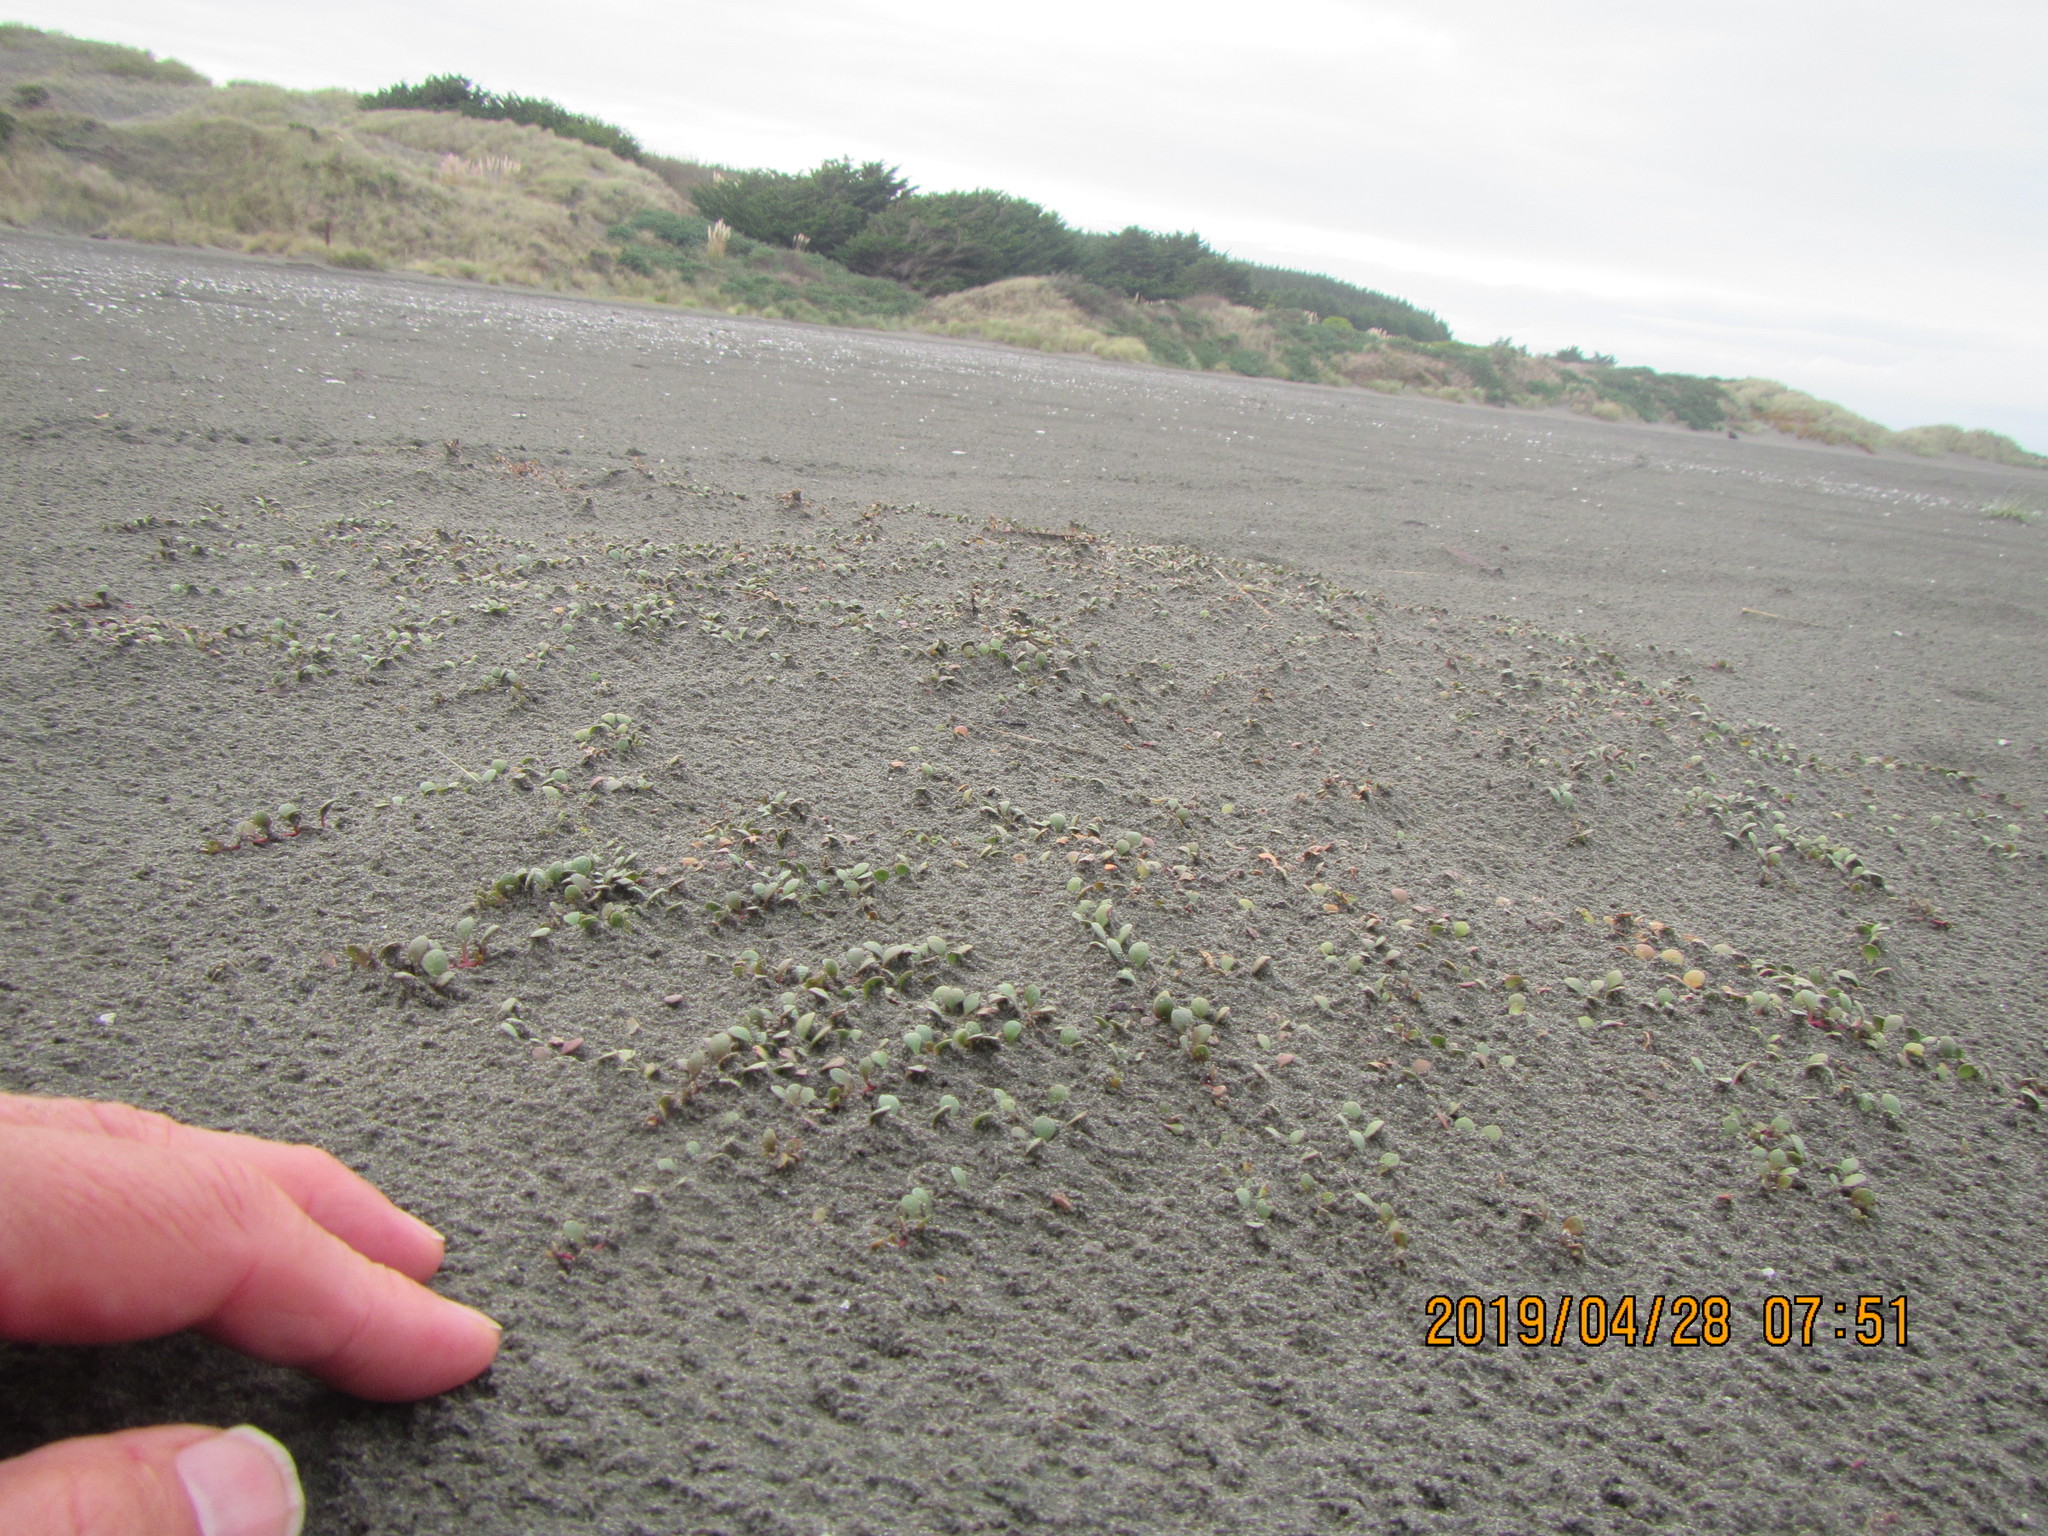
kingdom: Plantae
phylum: Tracheophyta
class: Magnoliopsida
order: Ericales
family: Primulaceae
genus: Samolus
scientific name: Samolus repens
